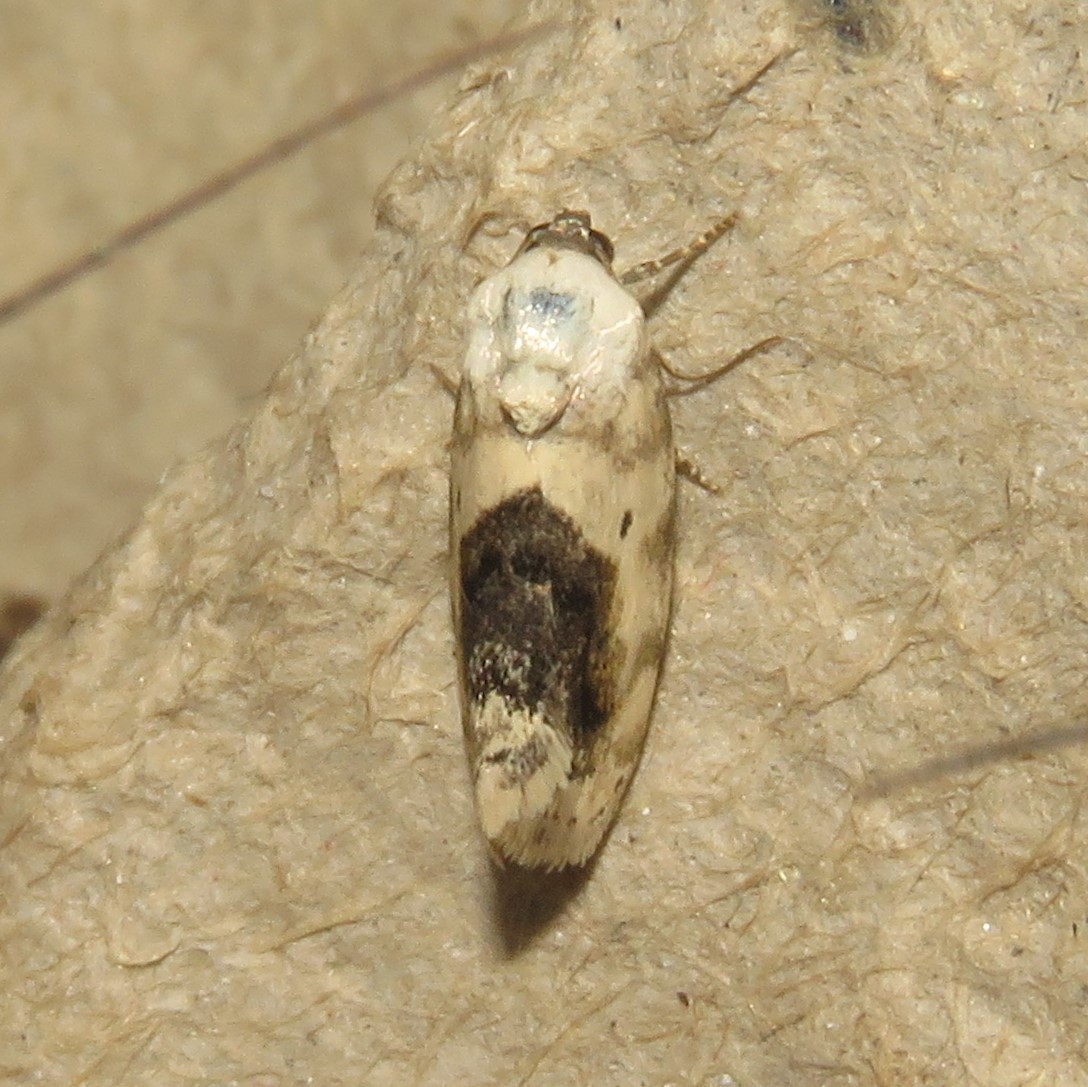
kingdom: Animalia
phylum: Arthropoda
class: Insecta
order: Lepidoptera
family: Noctuidae
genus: Acontia
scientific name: Acontia erastrioides
